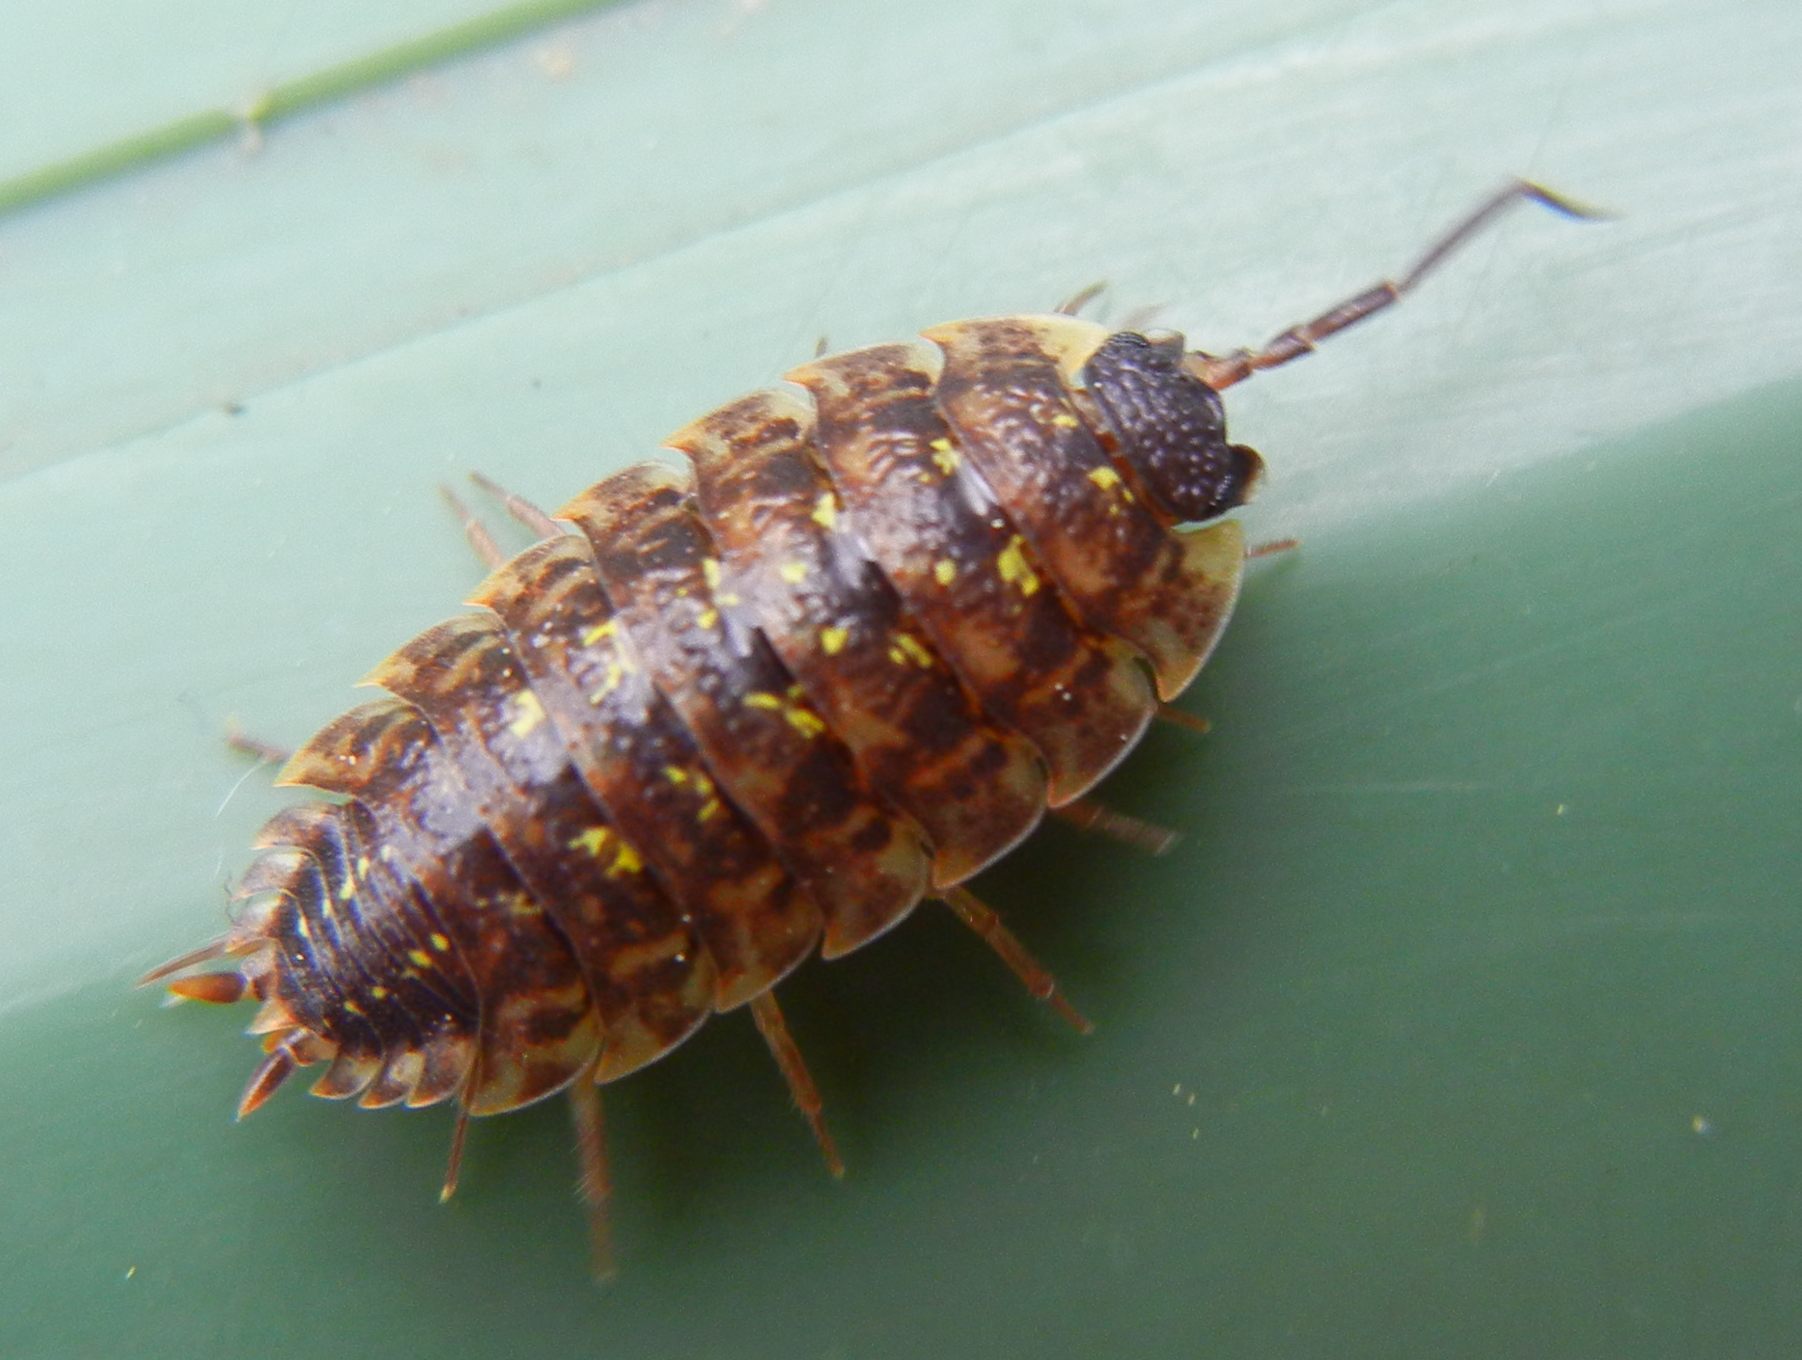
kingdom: Animalia
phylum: Arthropoda
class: Malacostraca
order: Isopoda
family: Porcellionidae
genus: Porcellio
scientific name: Porcellio spinicornis
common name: Painted woodlouse
